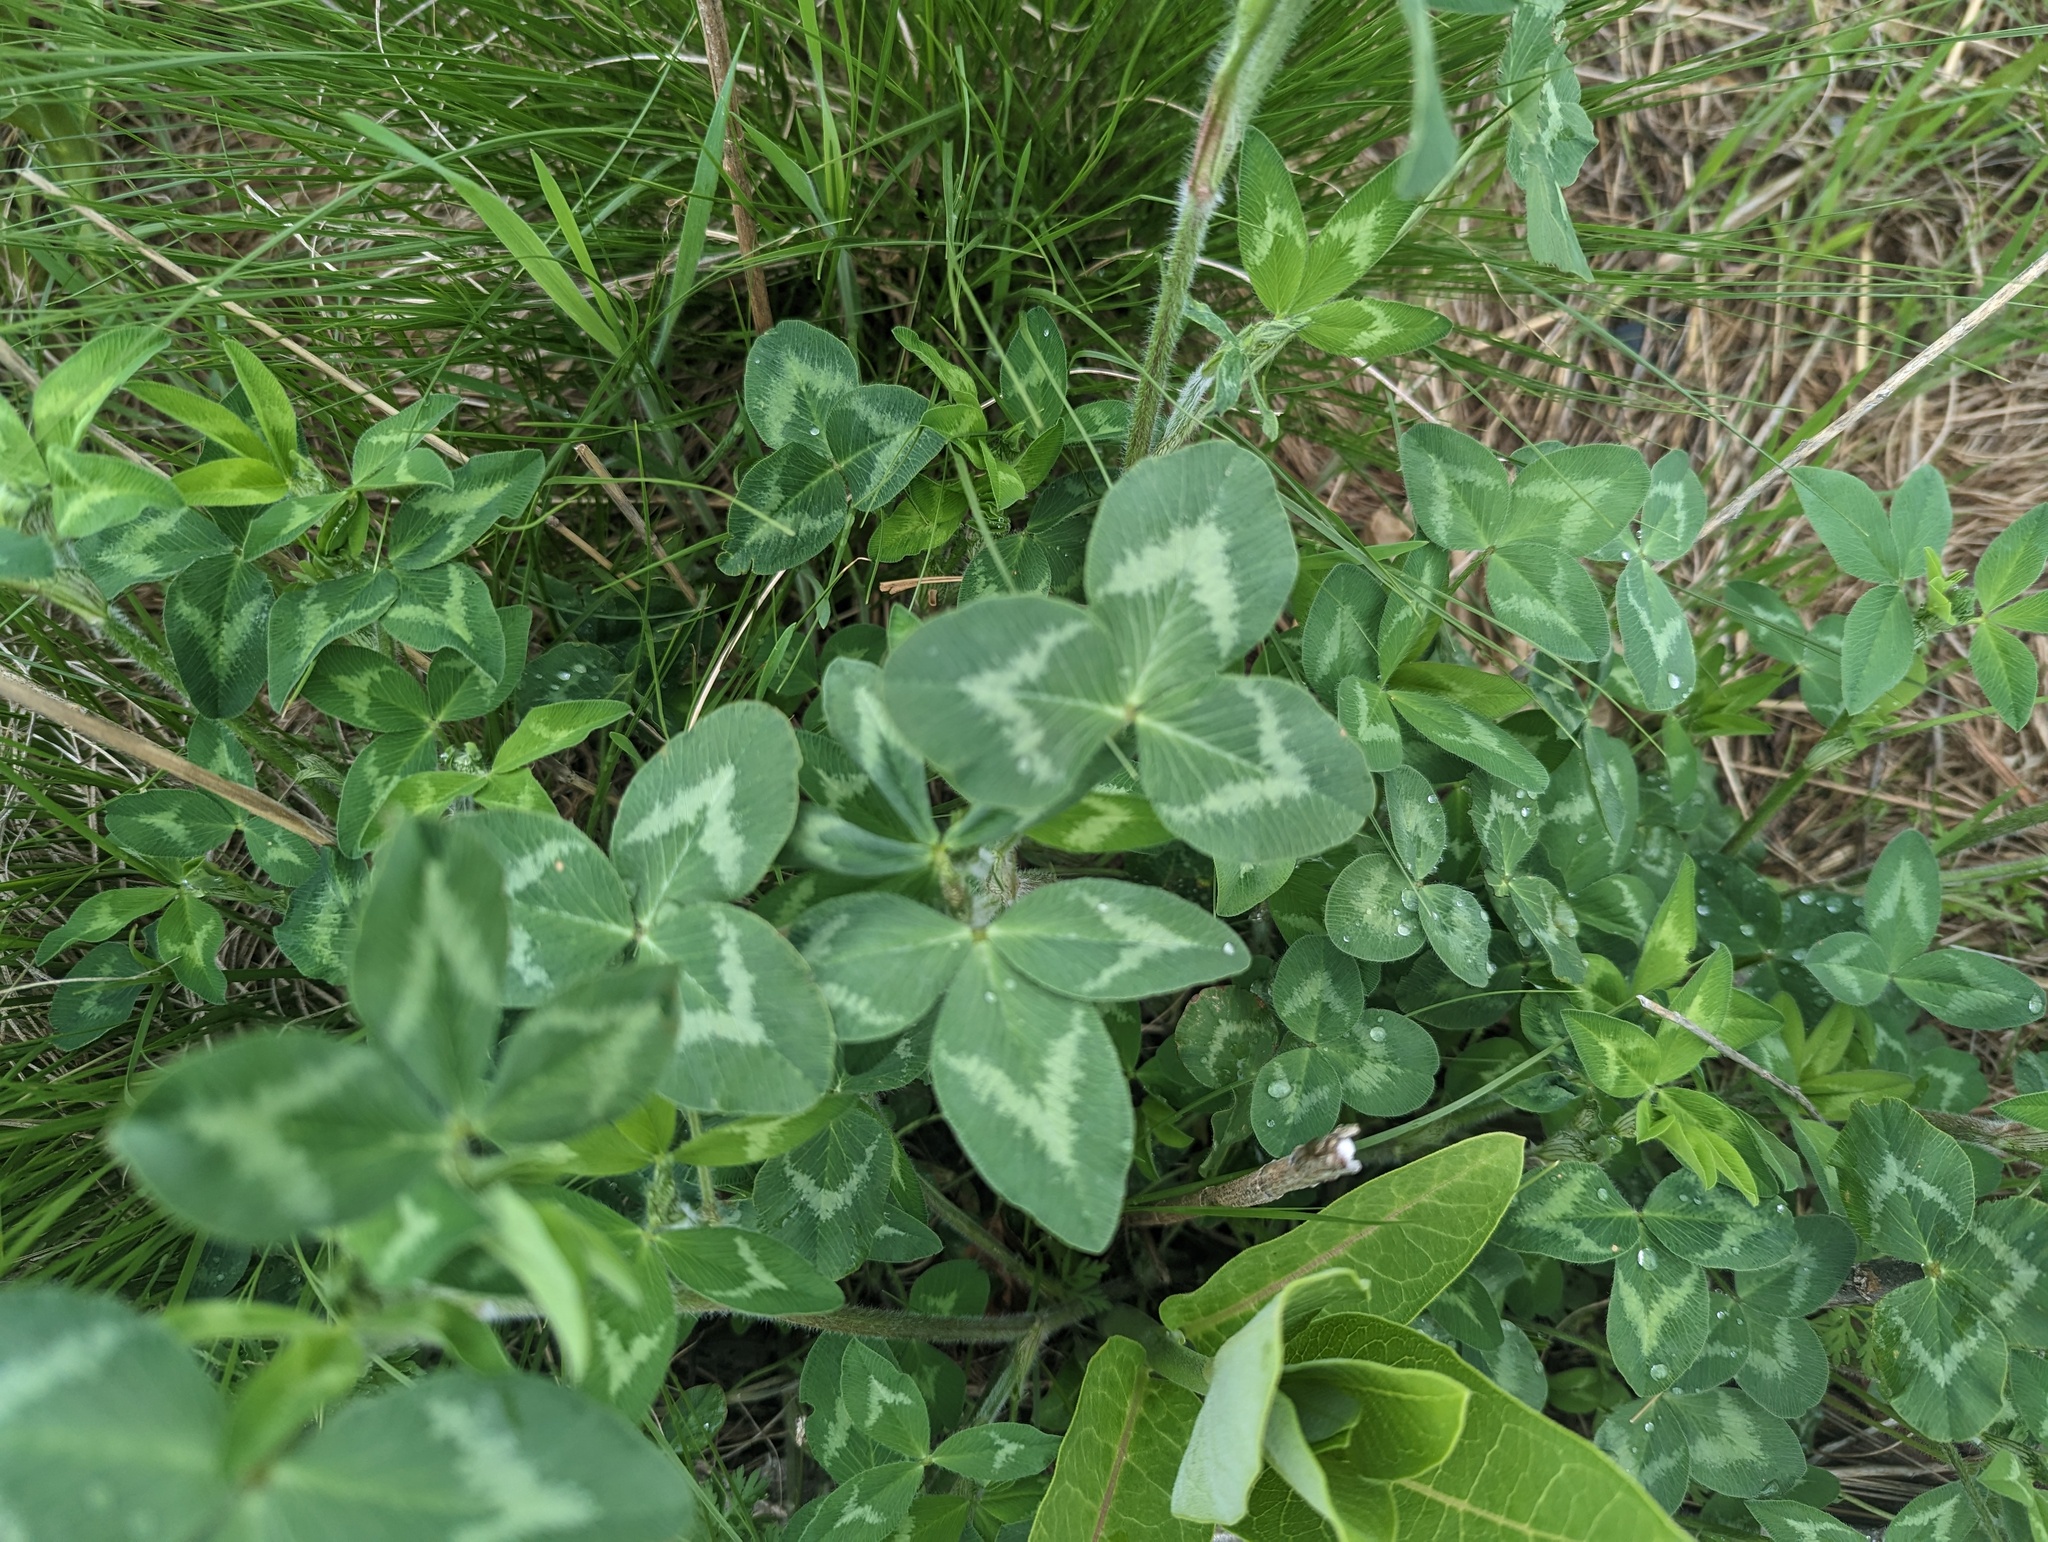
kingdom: Plantae
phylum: Tracheophyta
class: Magnoliopsida
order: Fabales
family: Fabaceae
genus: Trifolium
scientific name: Trifolium pratense
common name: Red clover
